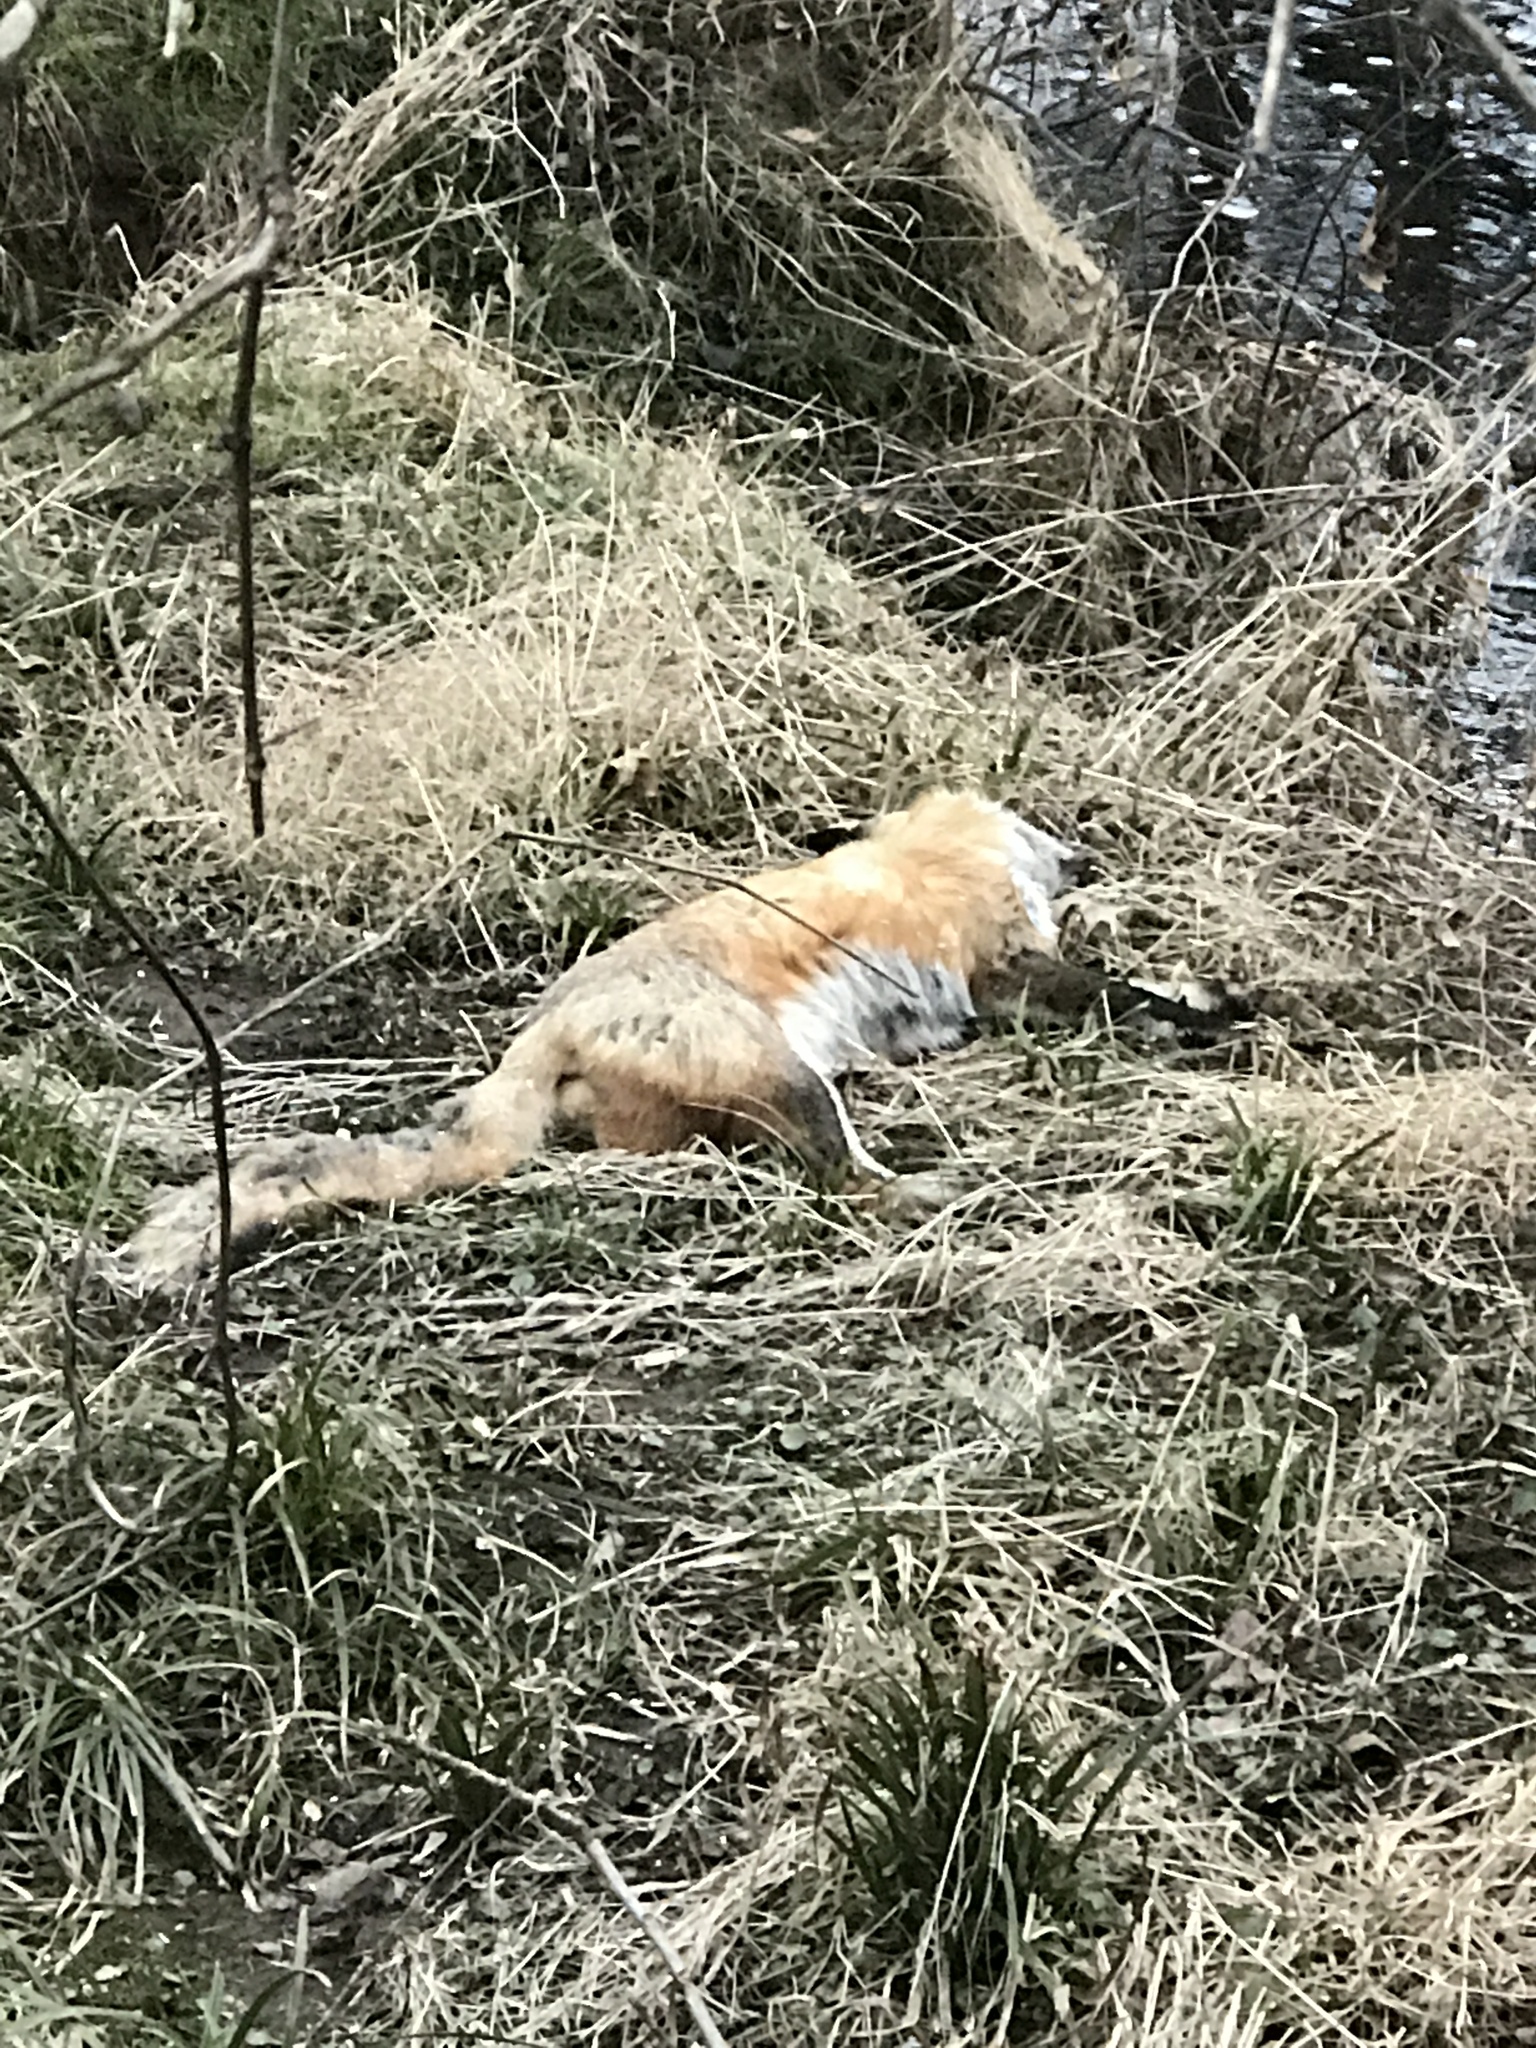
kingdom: Animalia
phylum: Chordata
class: Mammalia
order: Carnivora
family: Canidae
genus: Vulpes
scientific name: Vulpes vulpes
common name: Red fox
